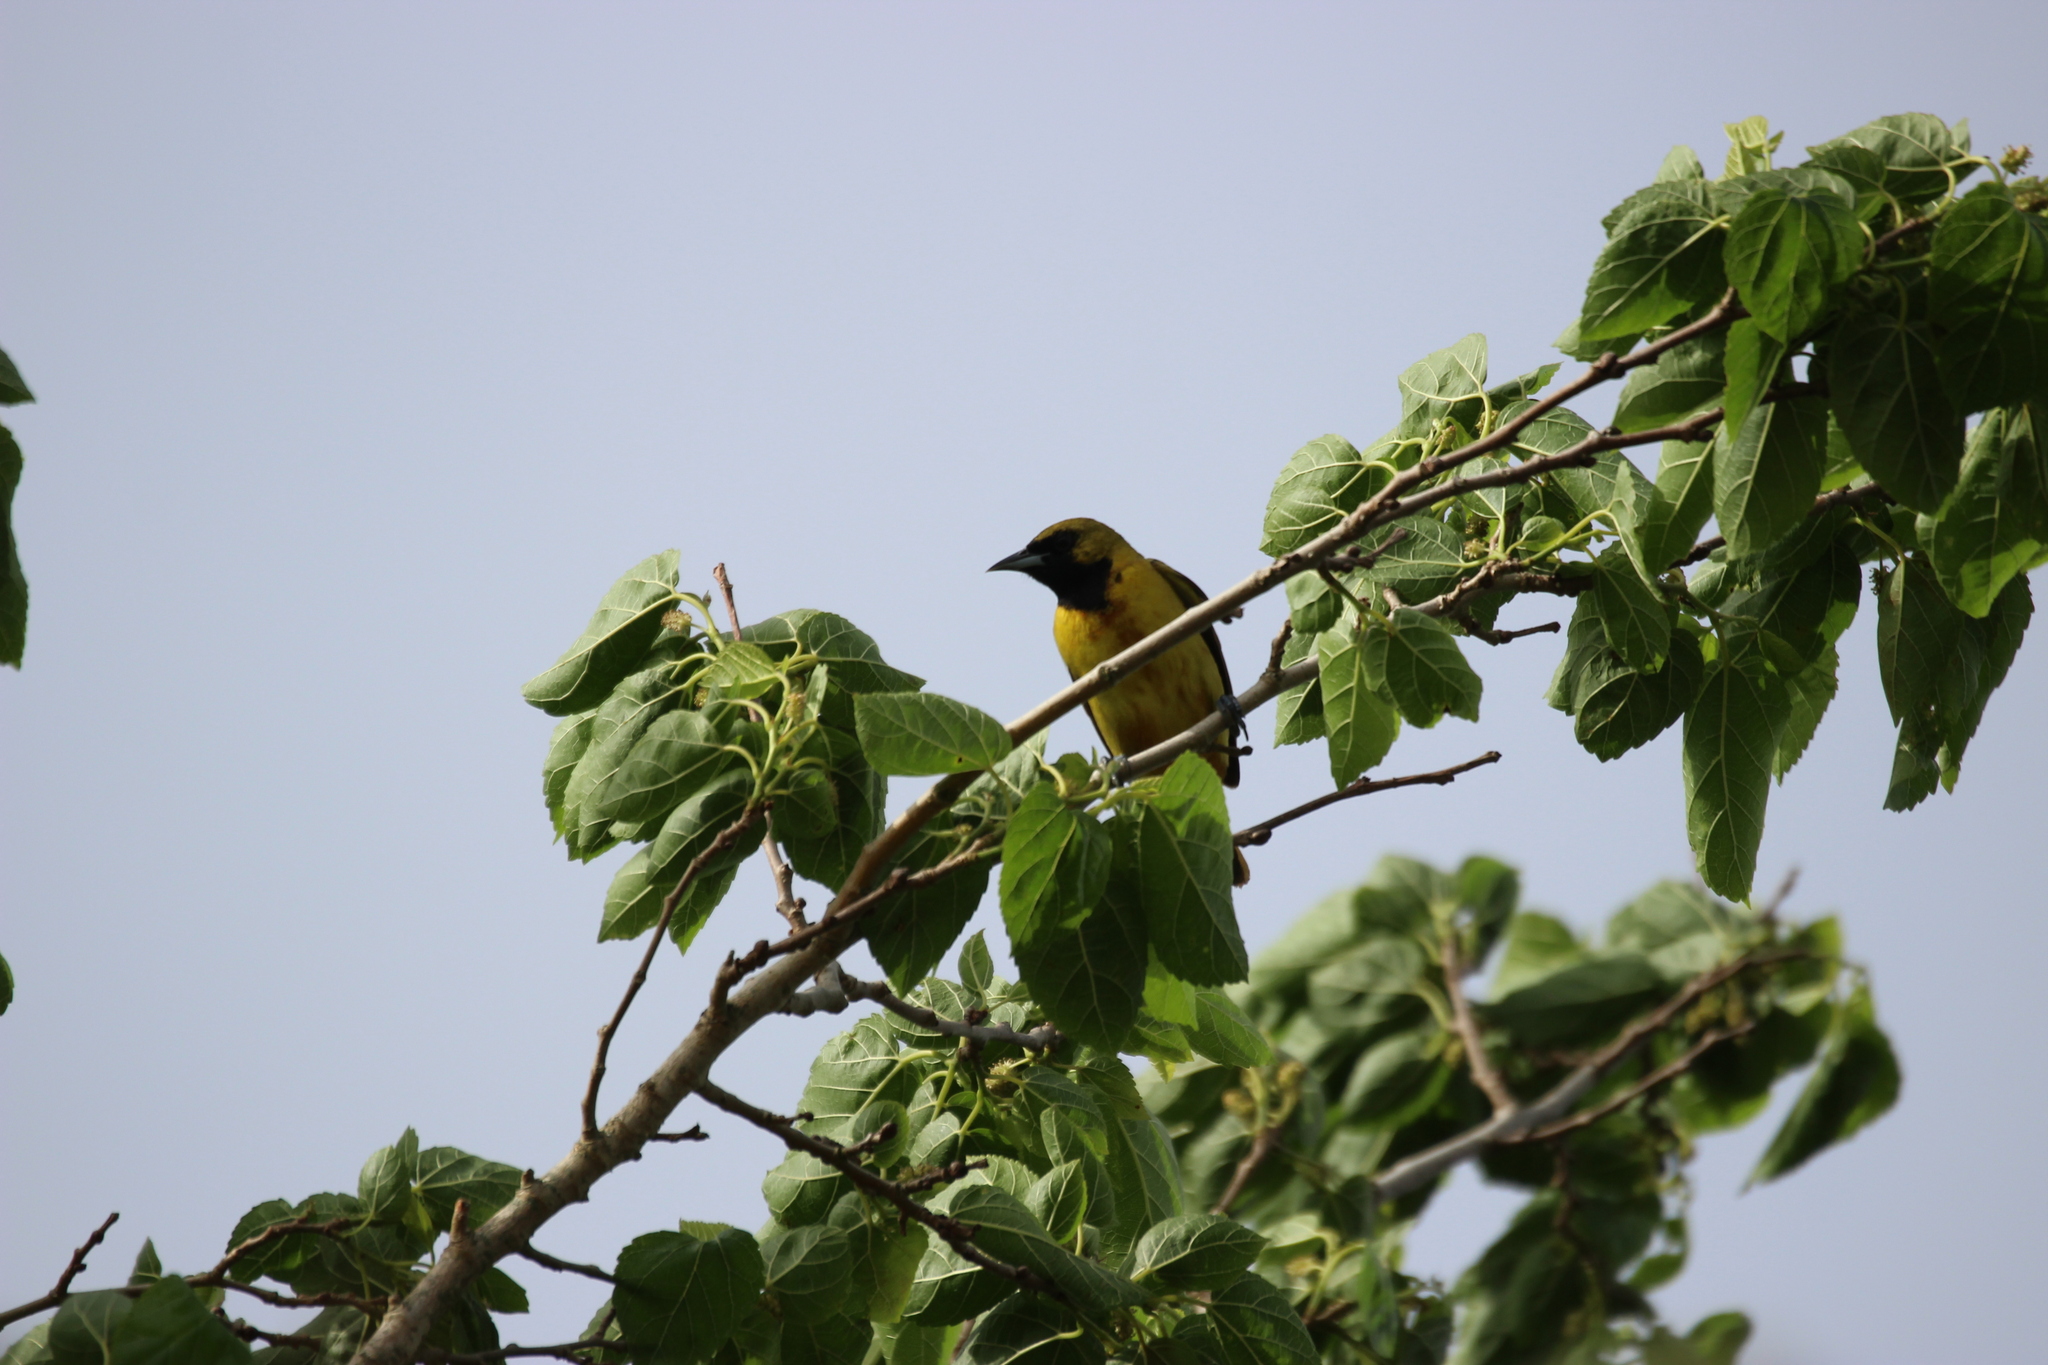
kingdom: Animalia
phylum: Chordata
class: Aves
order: Passeriformes
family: Icteridae
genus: Icterus
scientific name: Icterus spurius
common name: Orchard oriole
